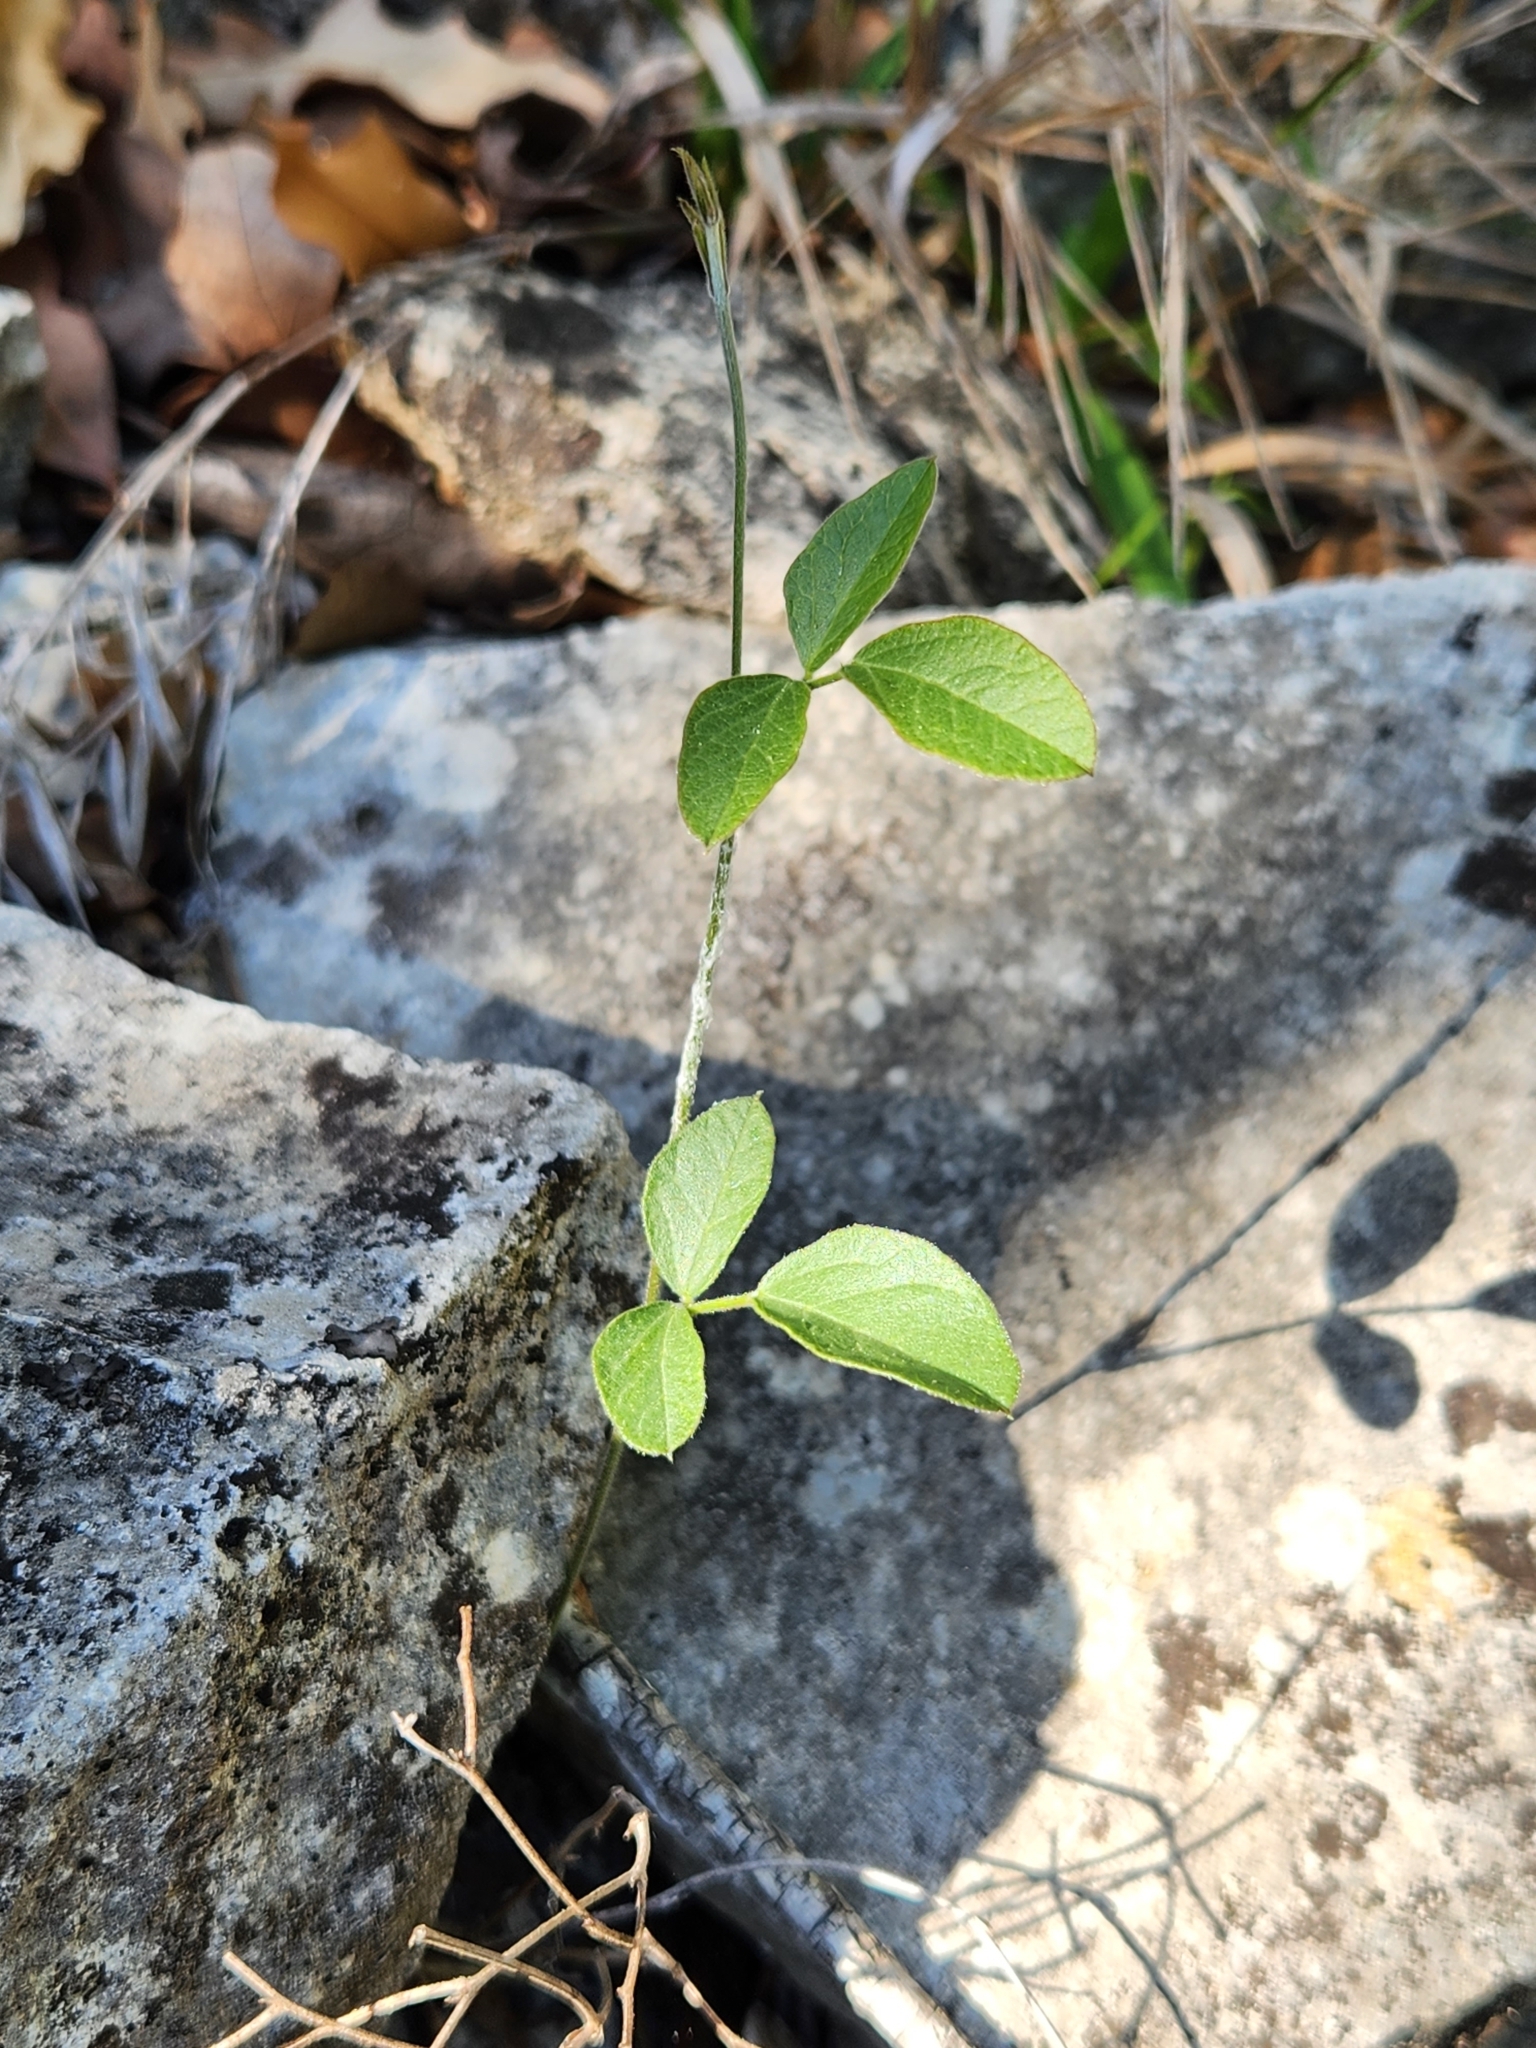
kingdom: Plantae
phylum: Tracheophyta
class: Magnoliopsida
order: Fabales
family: Fabaceae
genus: Rhynchosia
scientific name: Rhynchosia senna
